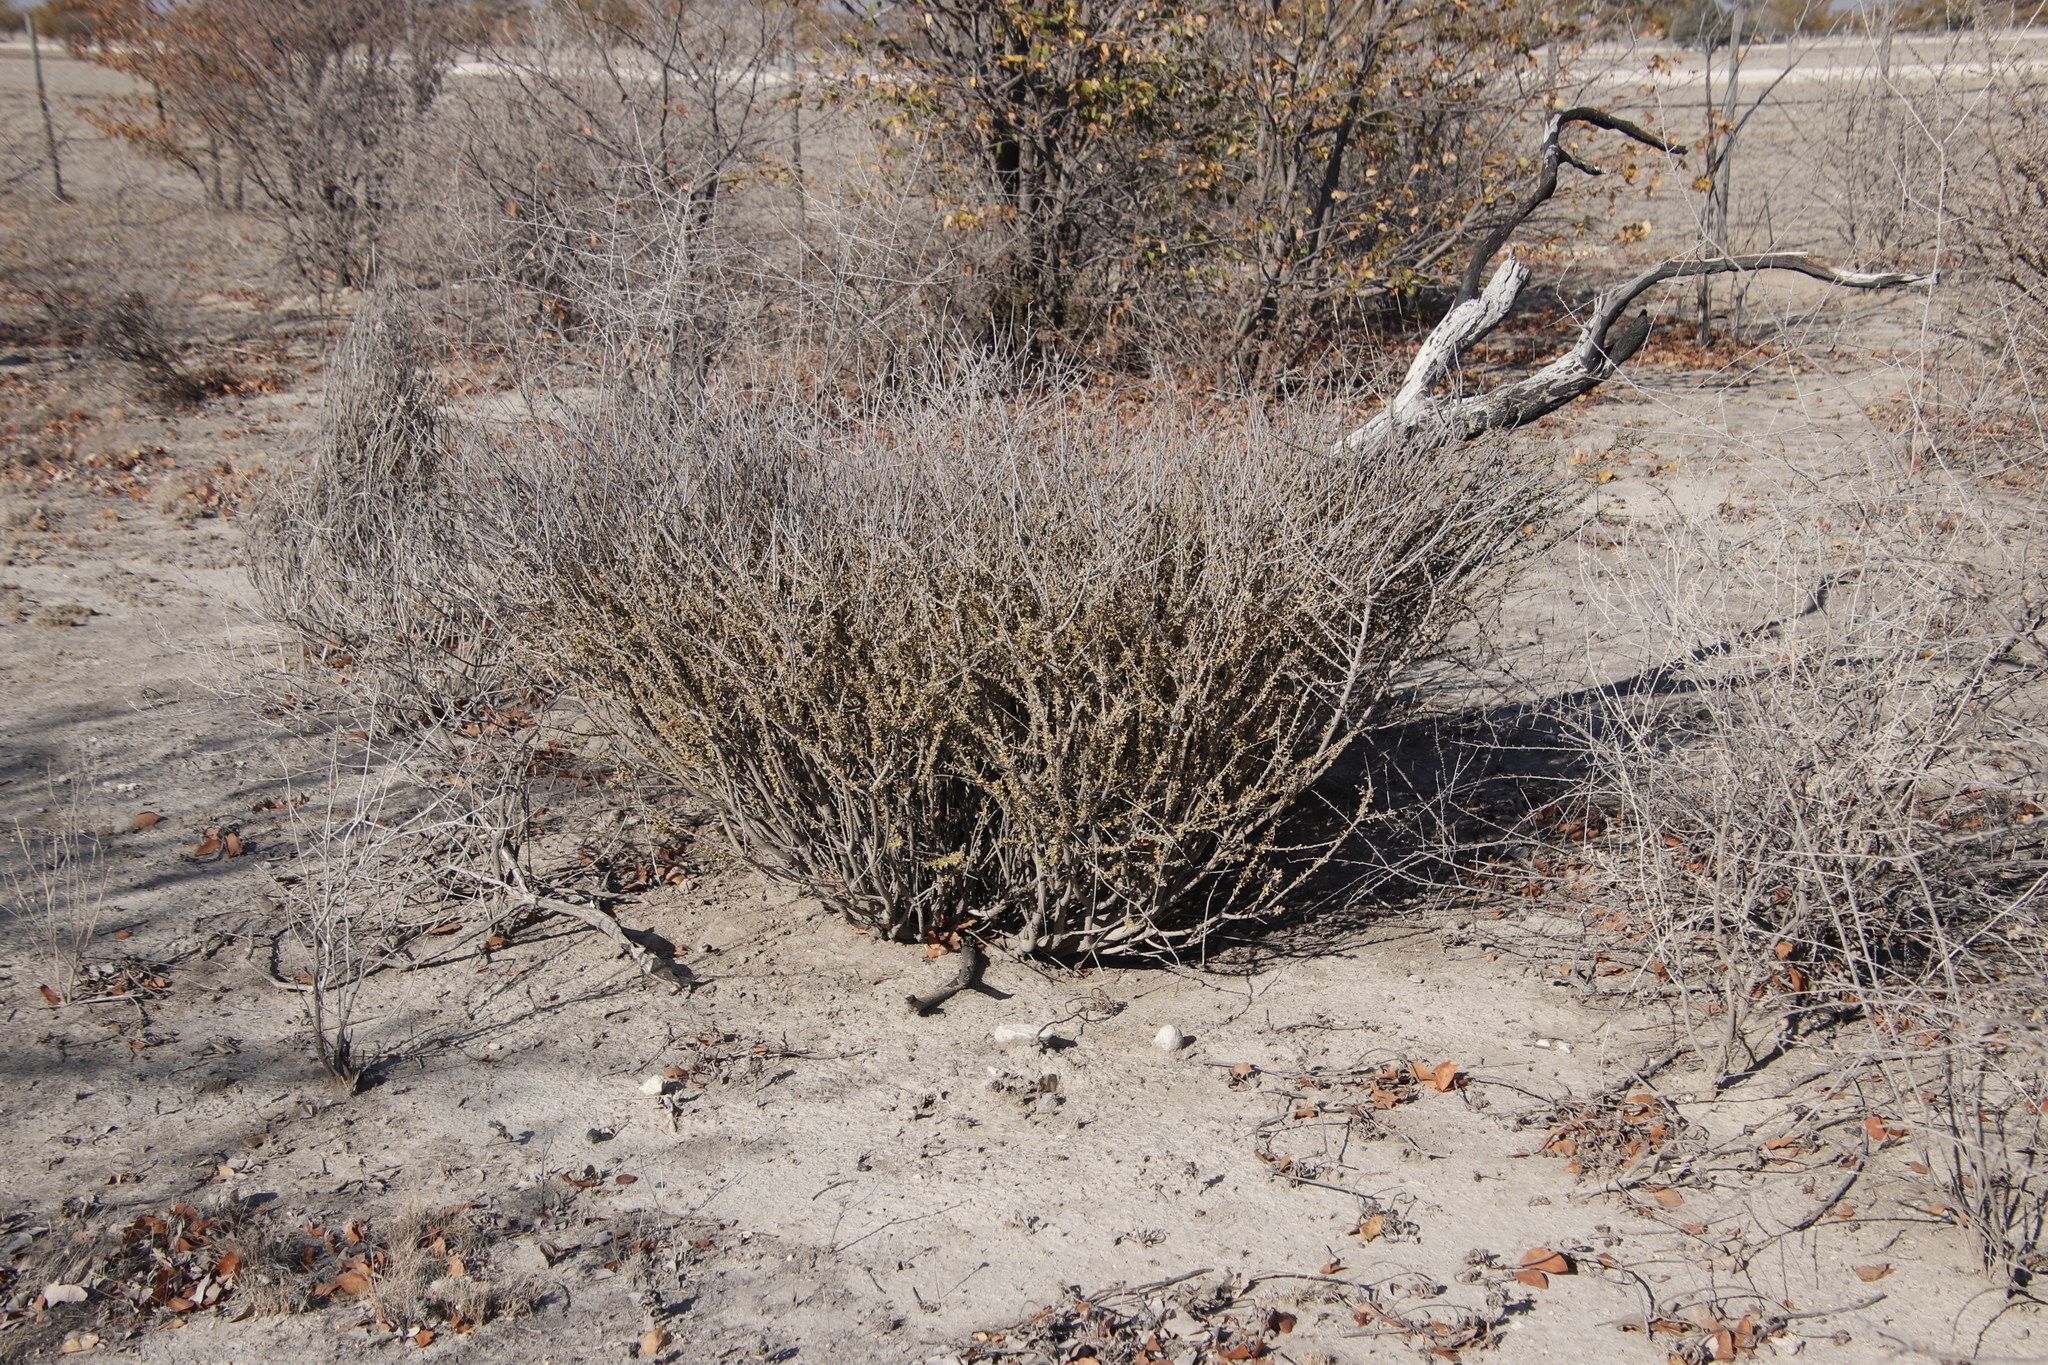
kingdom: Plantae
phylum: Tracheophyta
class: Magnoliopsida
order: Brassicales
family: Capparaceae
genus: Boscia
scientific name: Boscia foetida
